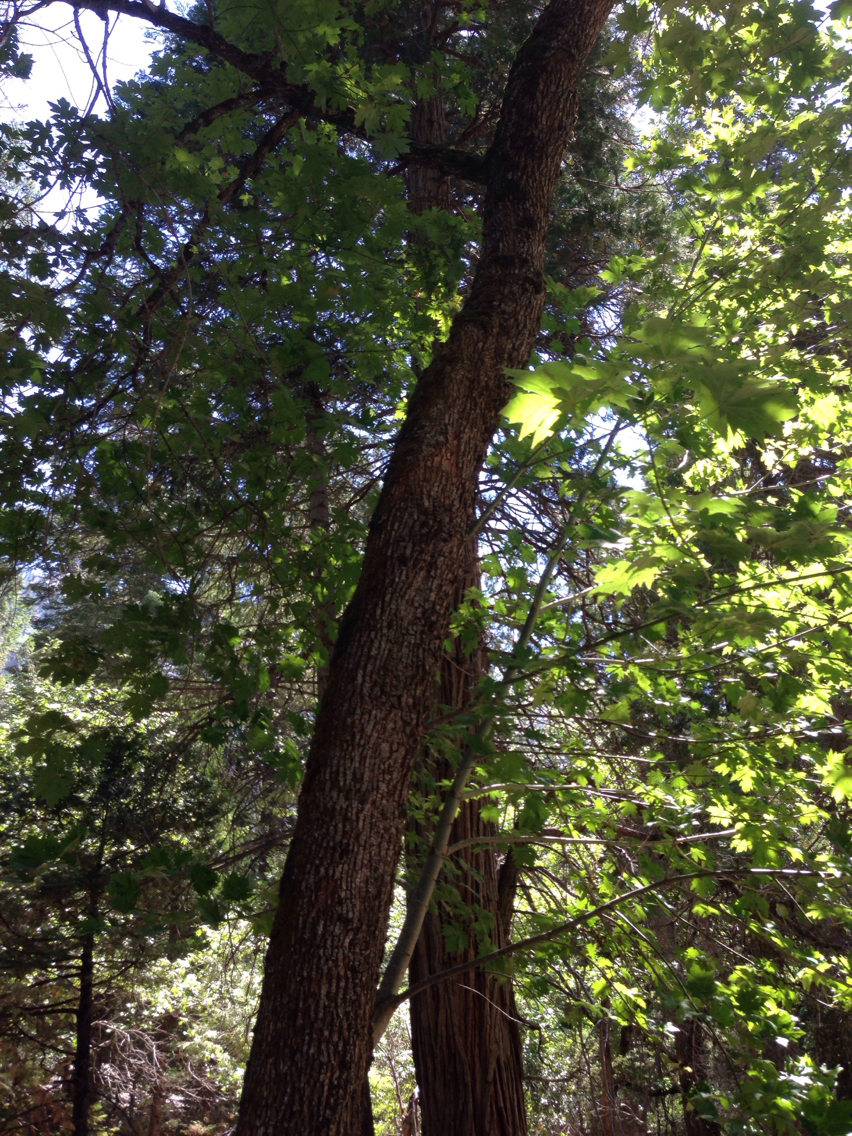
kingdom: Plantae
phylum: Tracheophyta
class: Magnoliopsida
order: Sapindales
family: Sapindaceae
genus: Acer
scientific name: Acer macrophyllum
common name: Oregon maple
